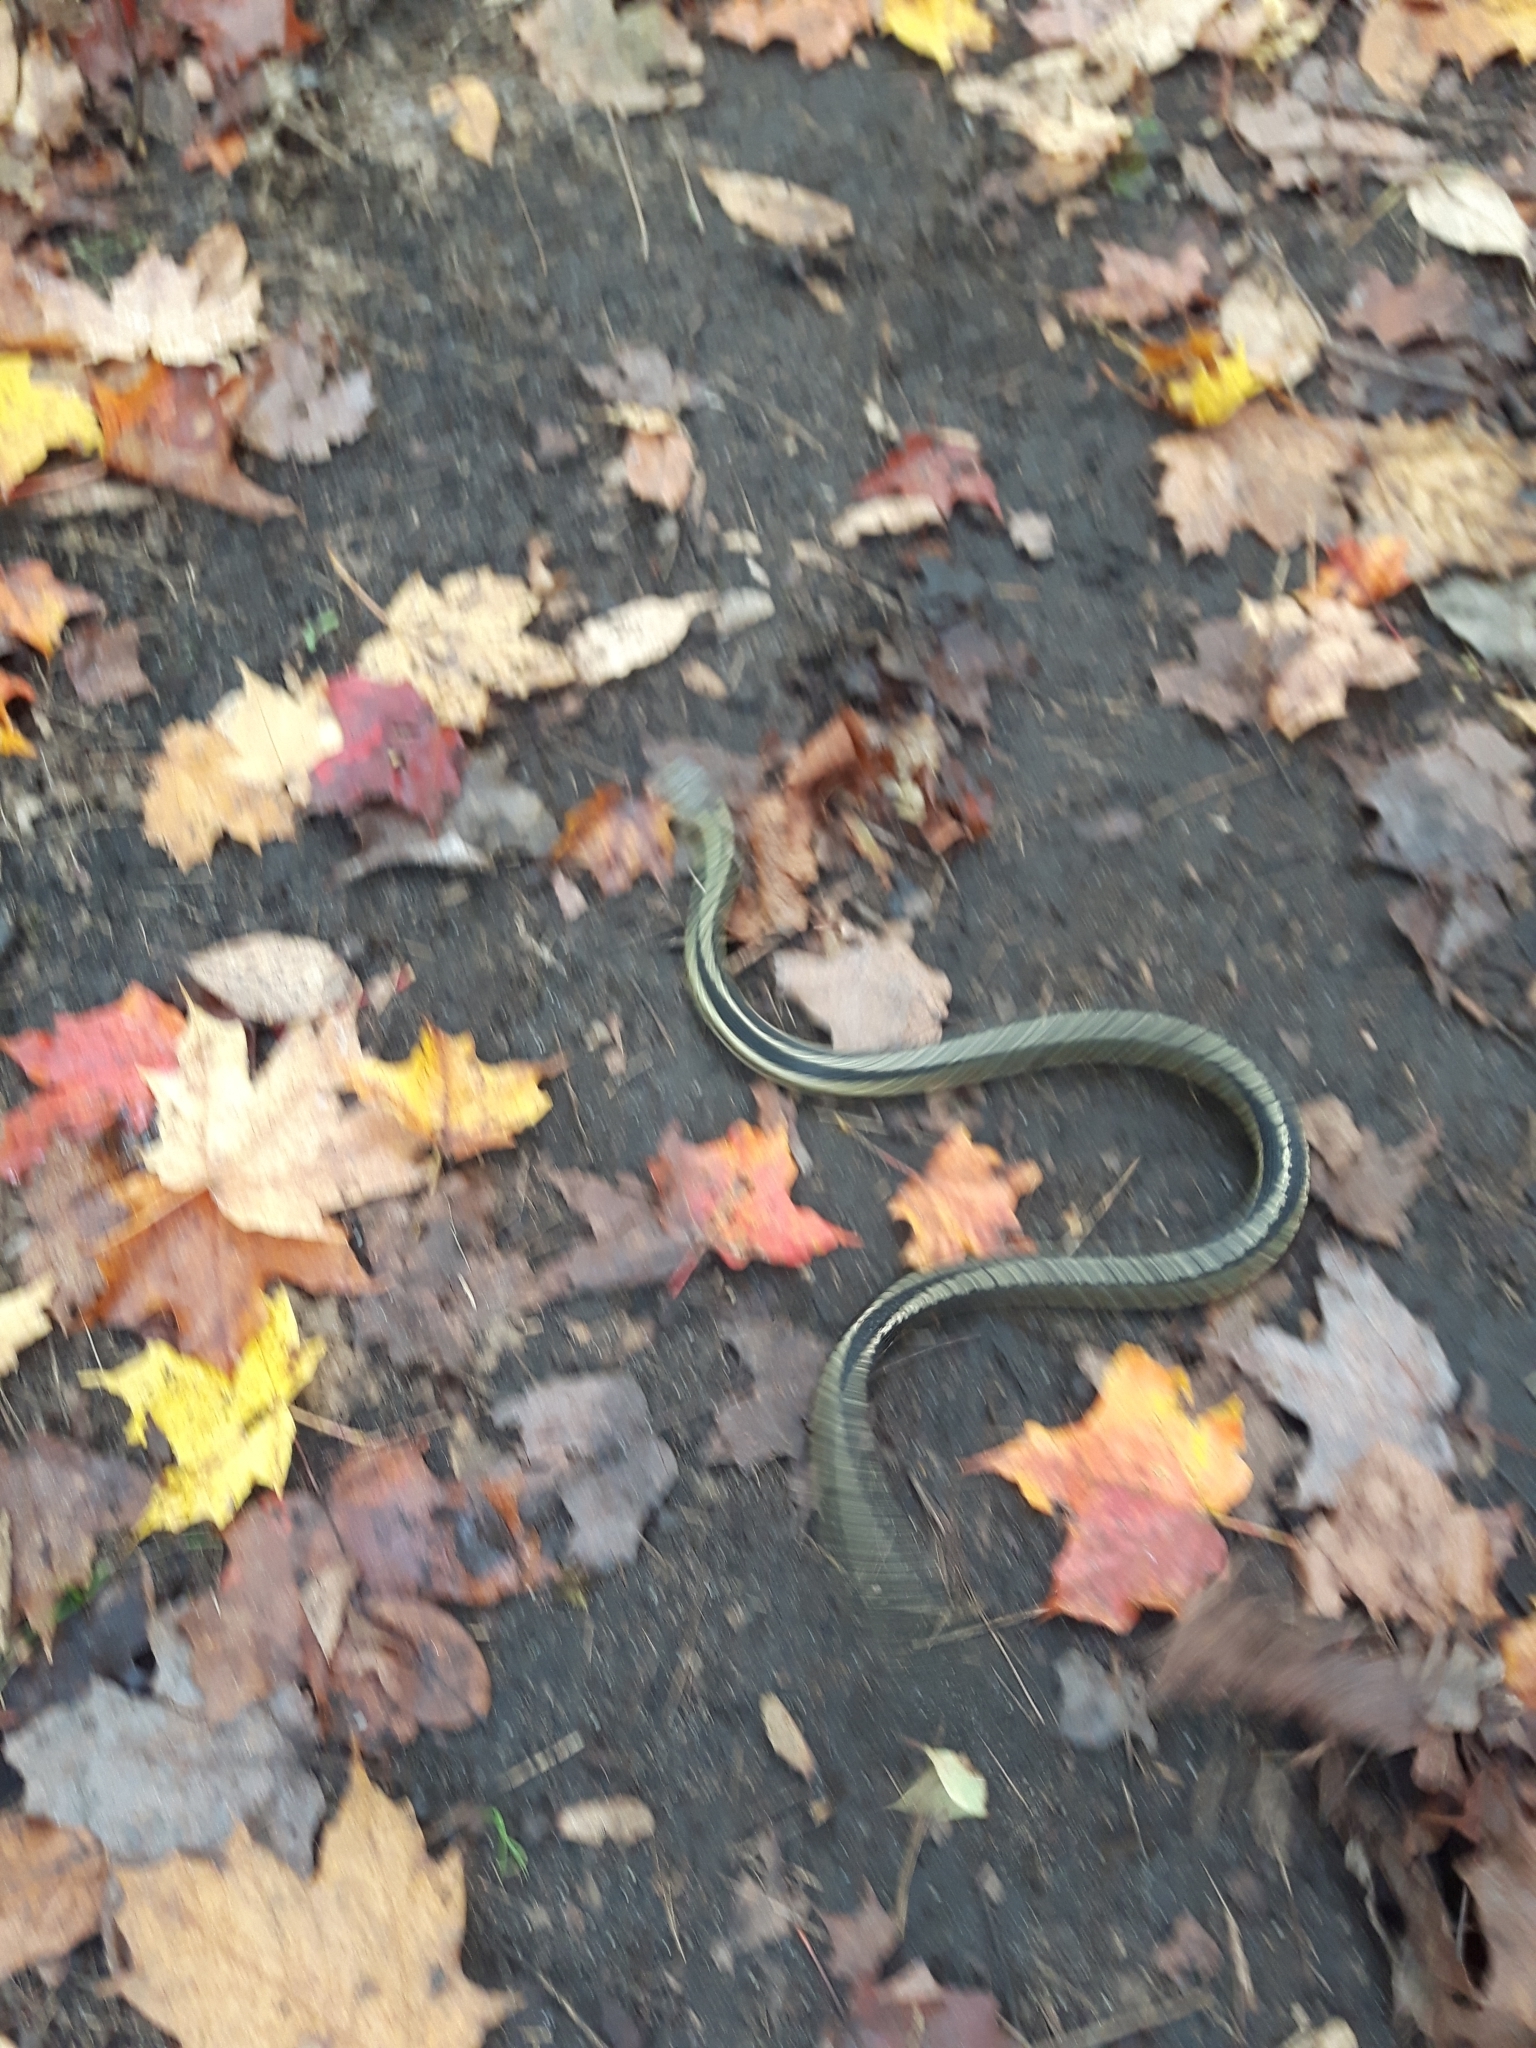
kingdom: Animalia
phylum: Chordata
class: Squamata
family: Colubridae
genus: Thamnophis
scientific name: Thamnophis sirtalis
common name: Common garter snake
